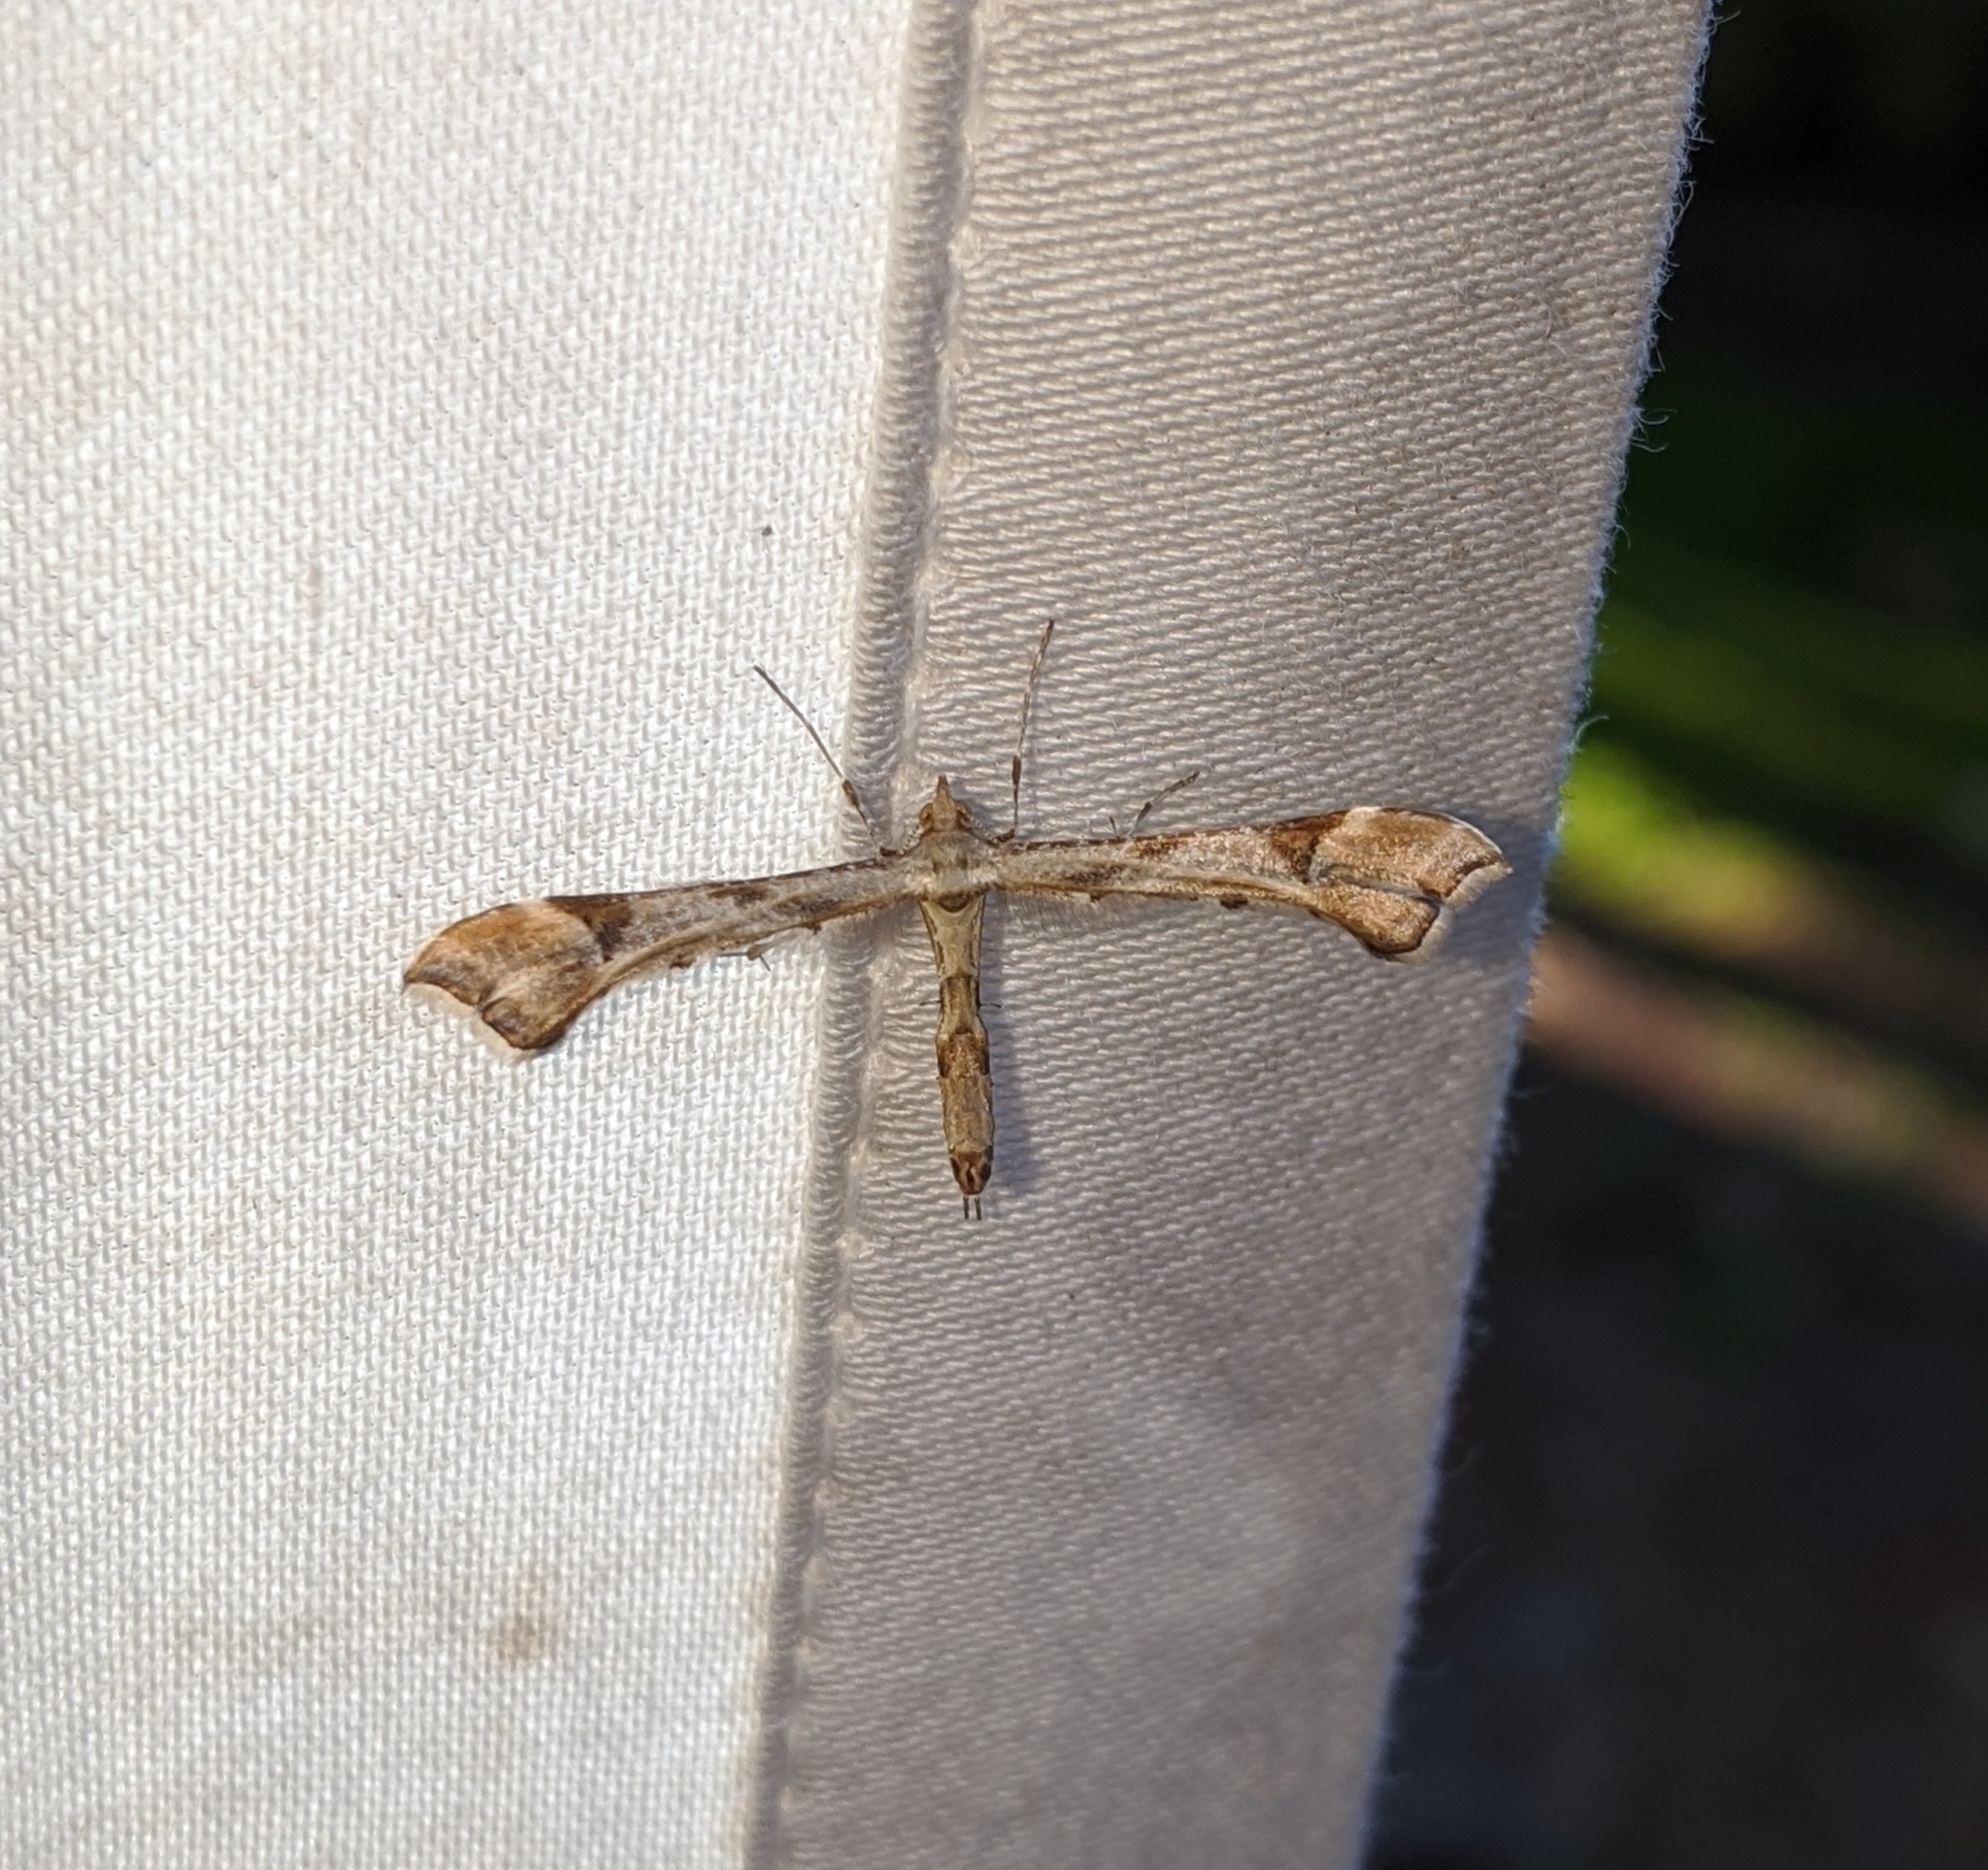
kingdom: Animalia
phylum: Arthropoda
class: Insecta
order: Lepidoptera
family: Pterophoridae
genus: Platyptilia
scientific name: Platyptilia carduidactylus
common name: Artichoke plume moth
